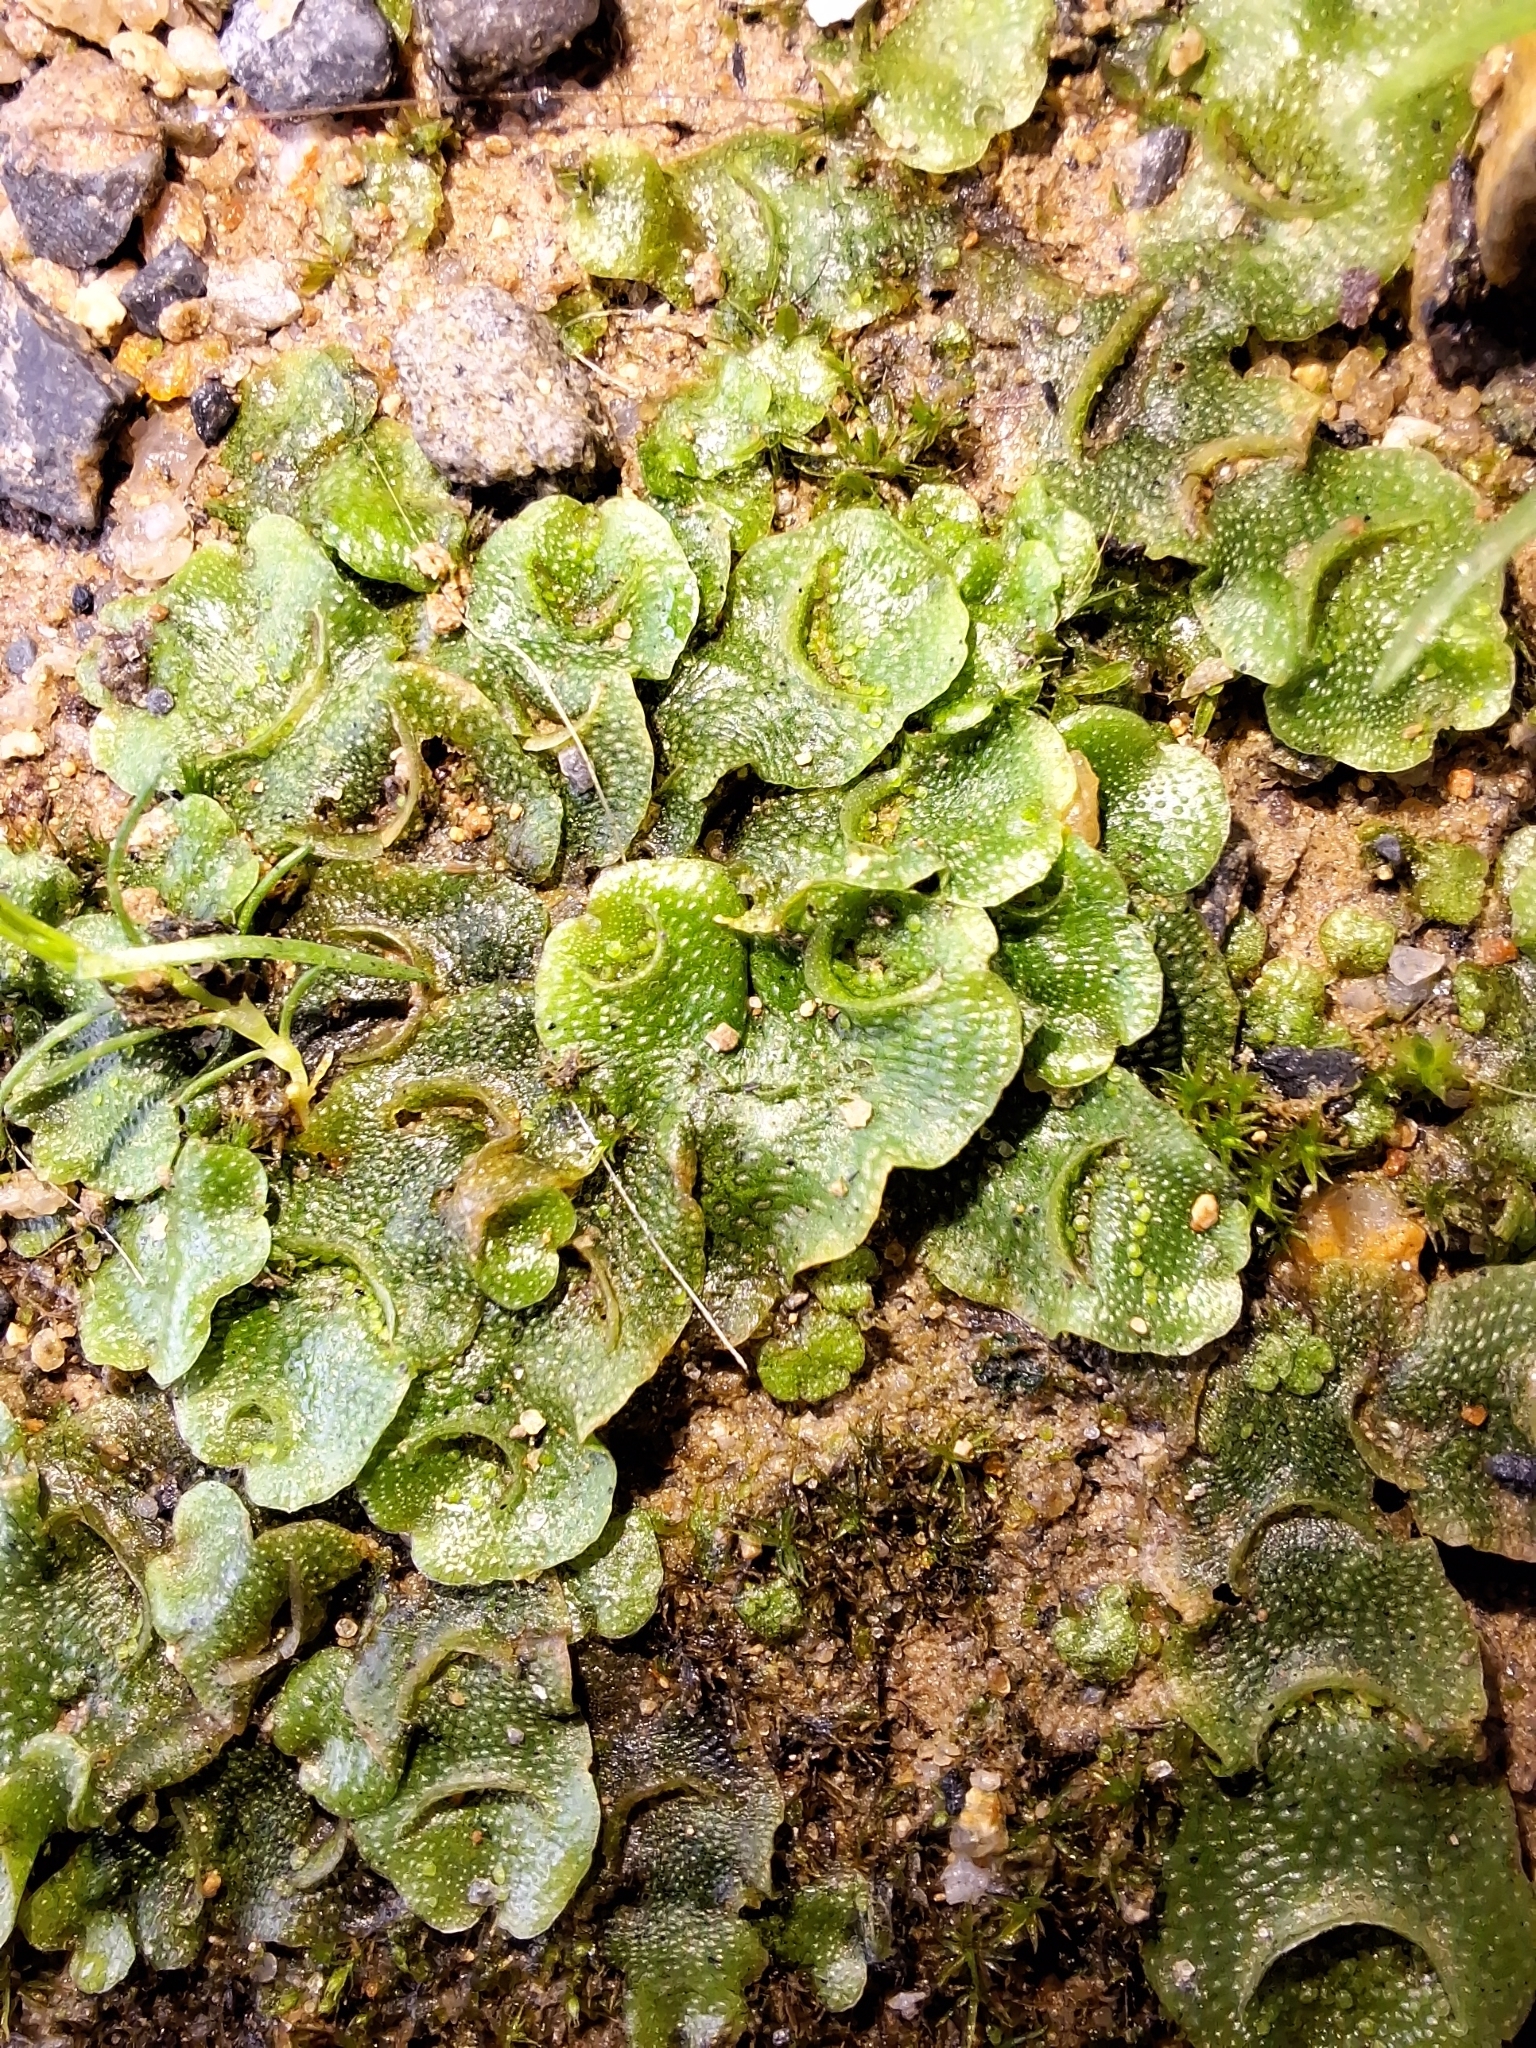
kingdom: Plantae
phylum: Marchantiophyta
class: Marchantiopsida
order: Lunulariales
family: Lunulariaceae
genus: Lunularia
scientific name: Lunularia cruciata
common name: Crescent-cup liverwort
